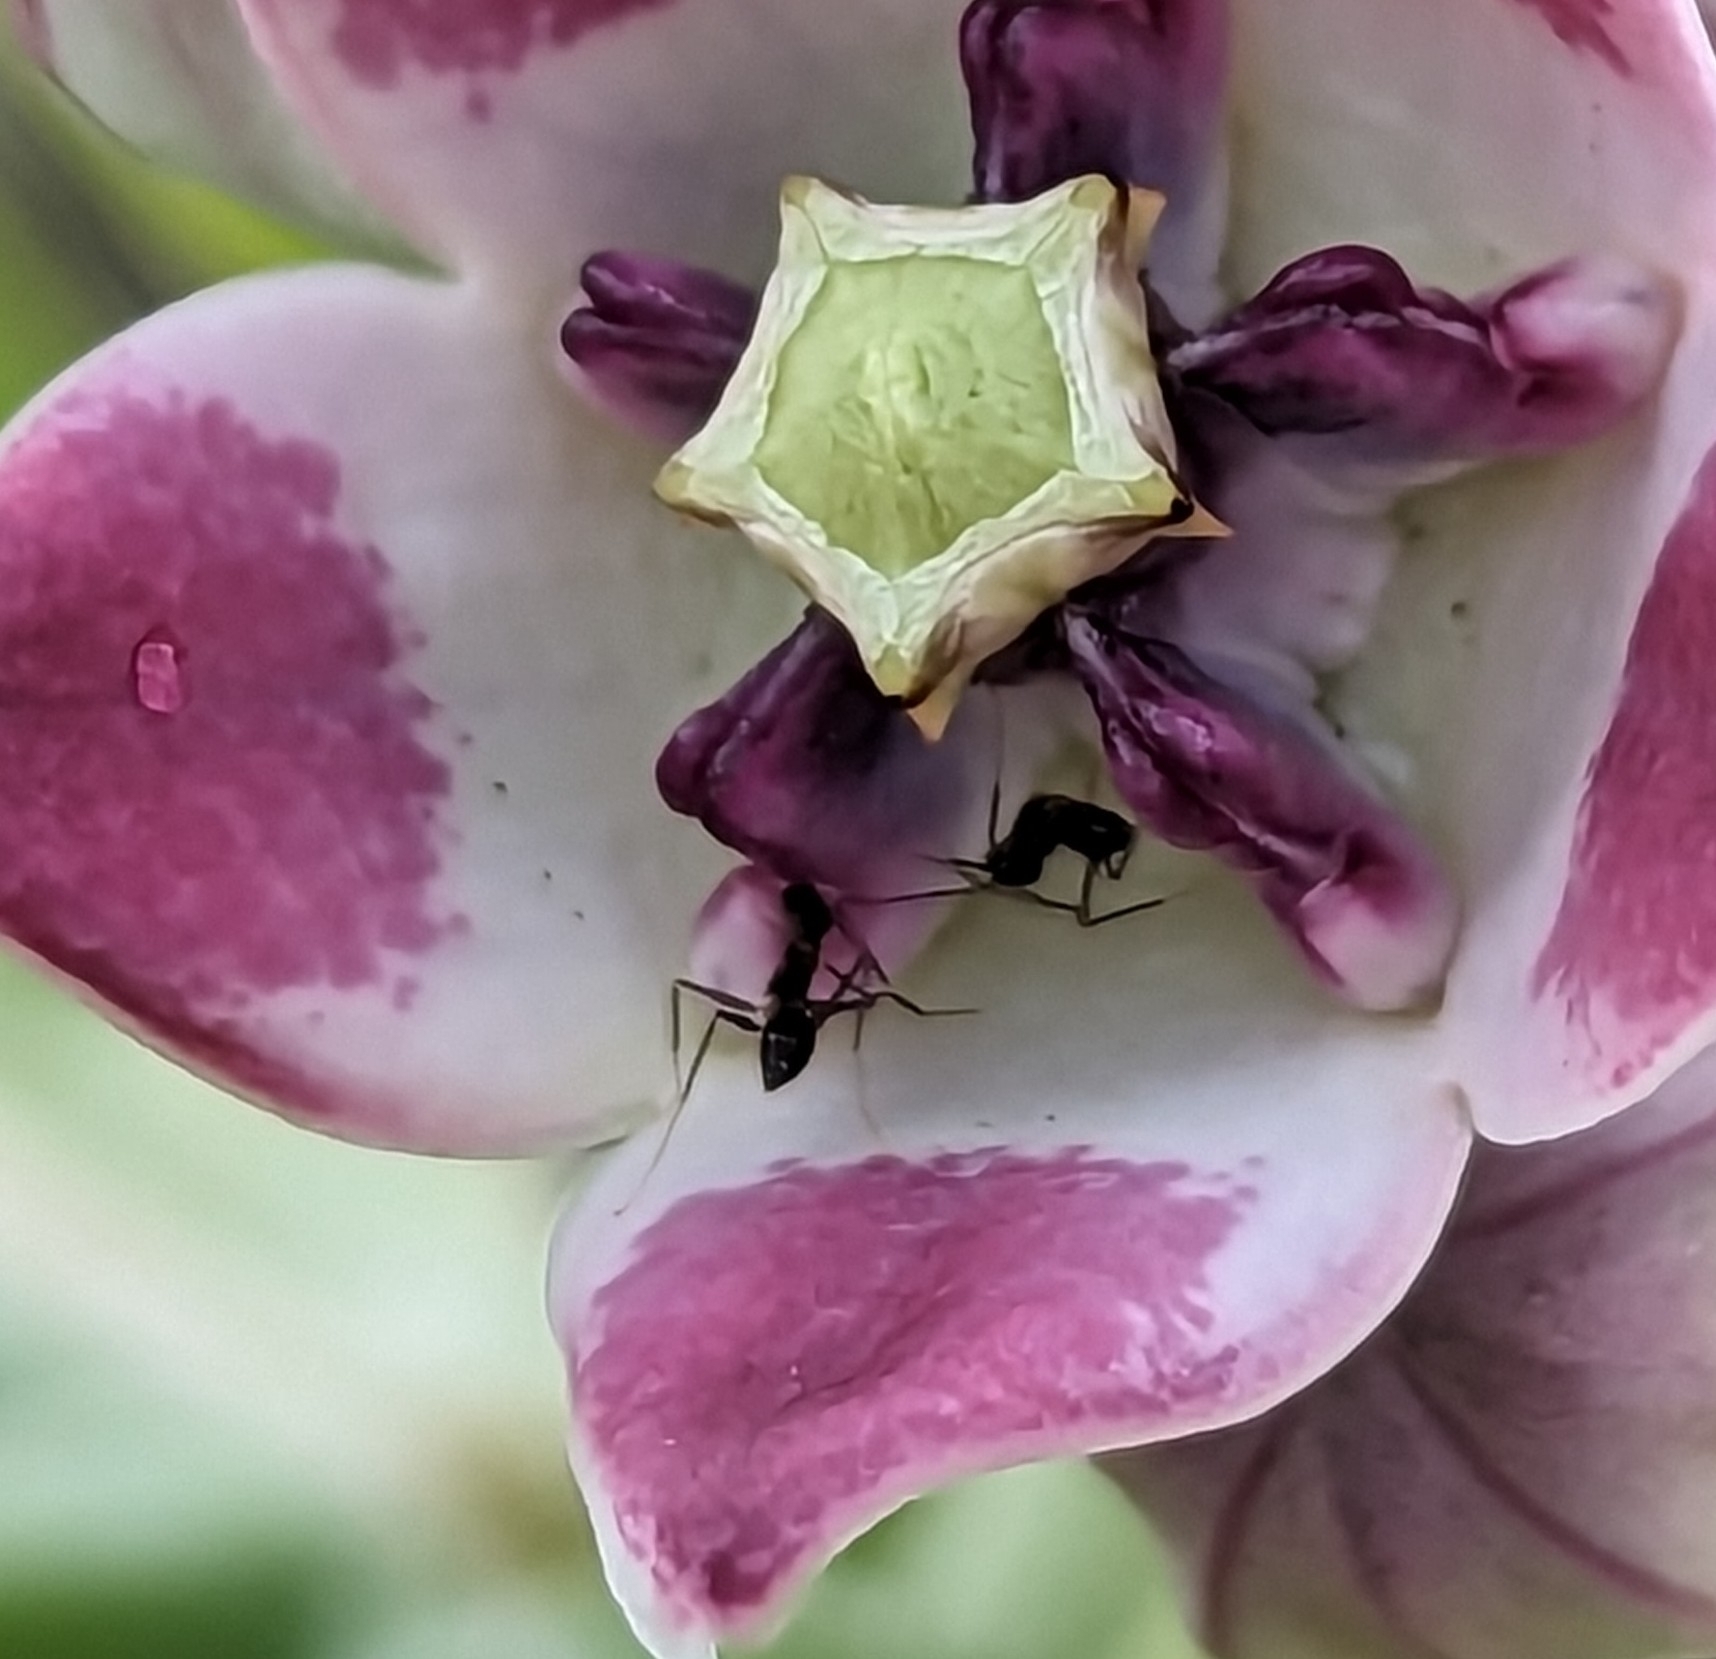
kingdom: Animalia
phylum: Arthropoda
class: Insecta
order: Hymenoptera
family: Formicidae
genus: Paratrechina
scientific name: Paratrechina longicornis
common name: Longhorned crazy ant
